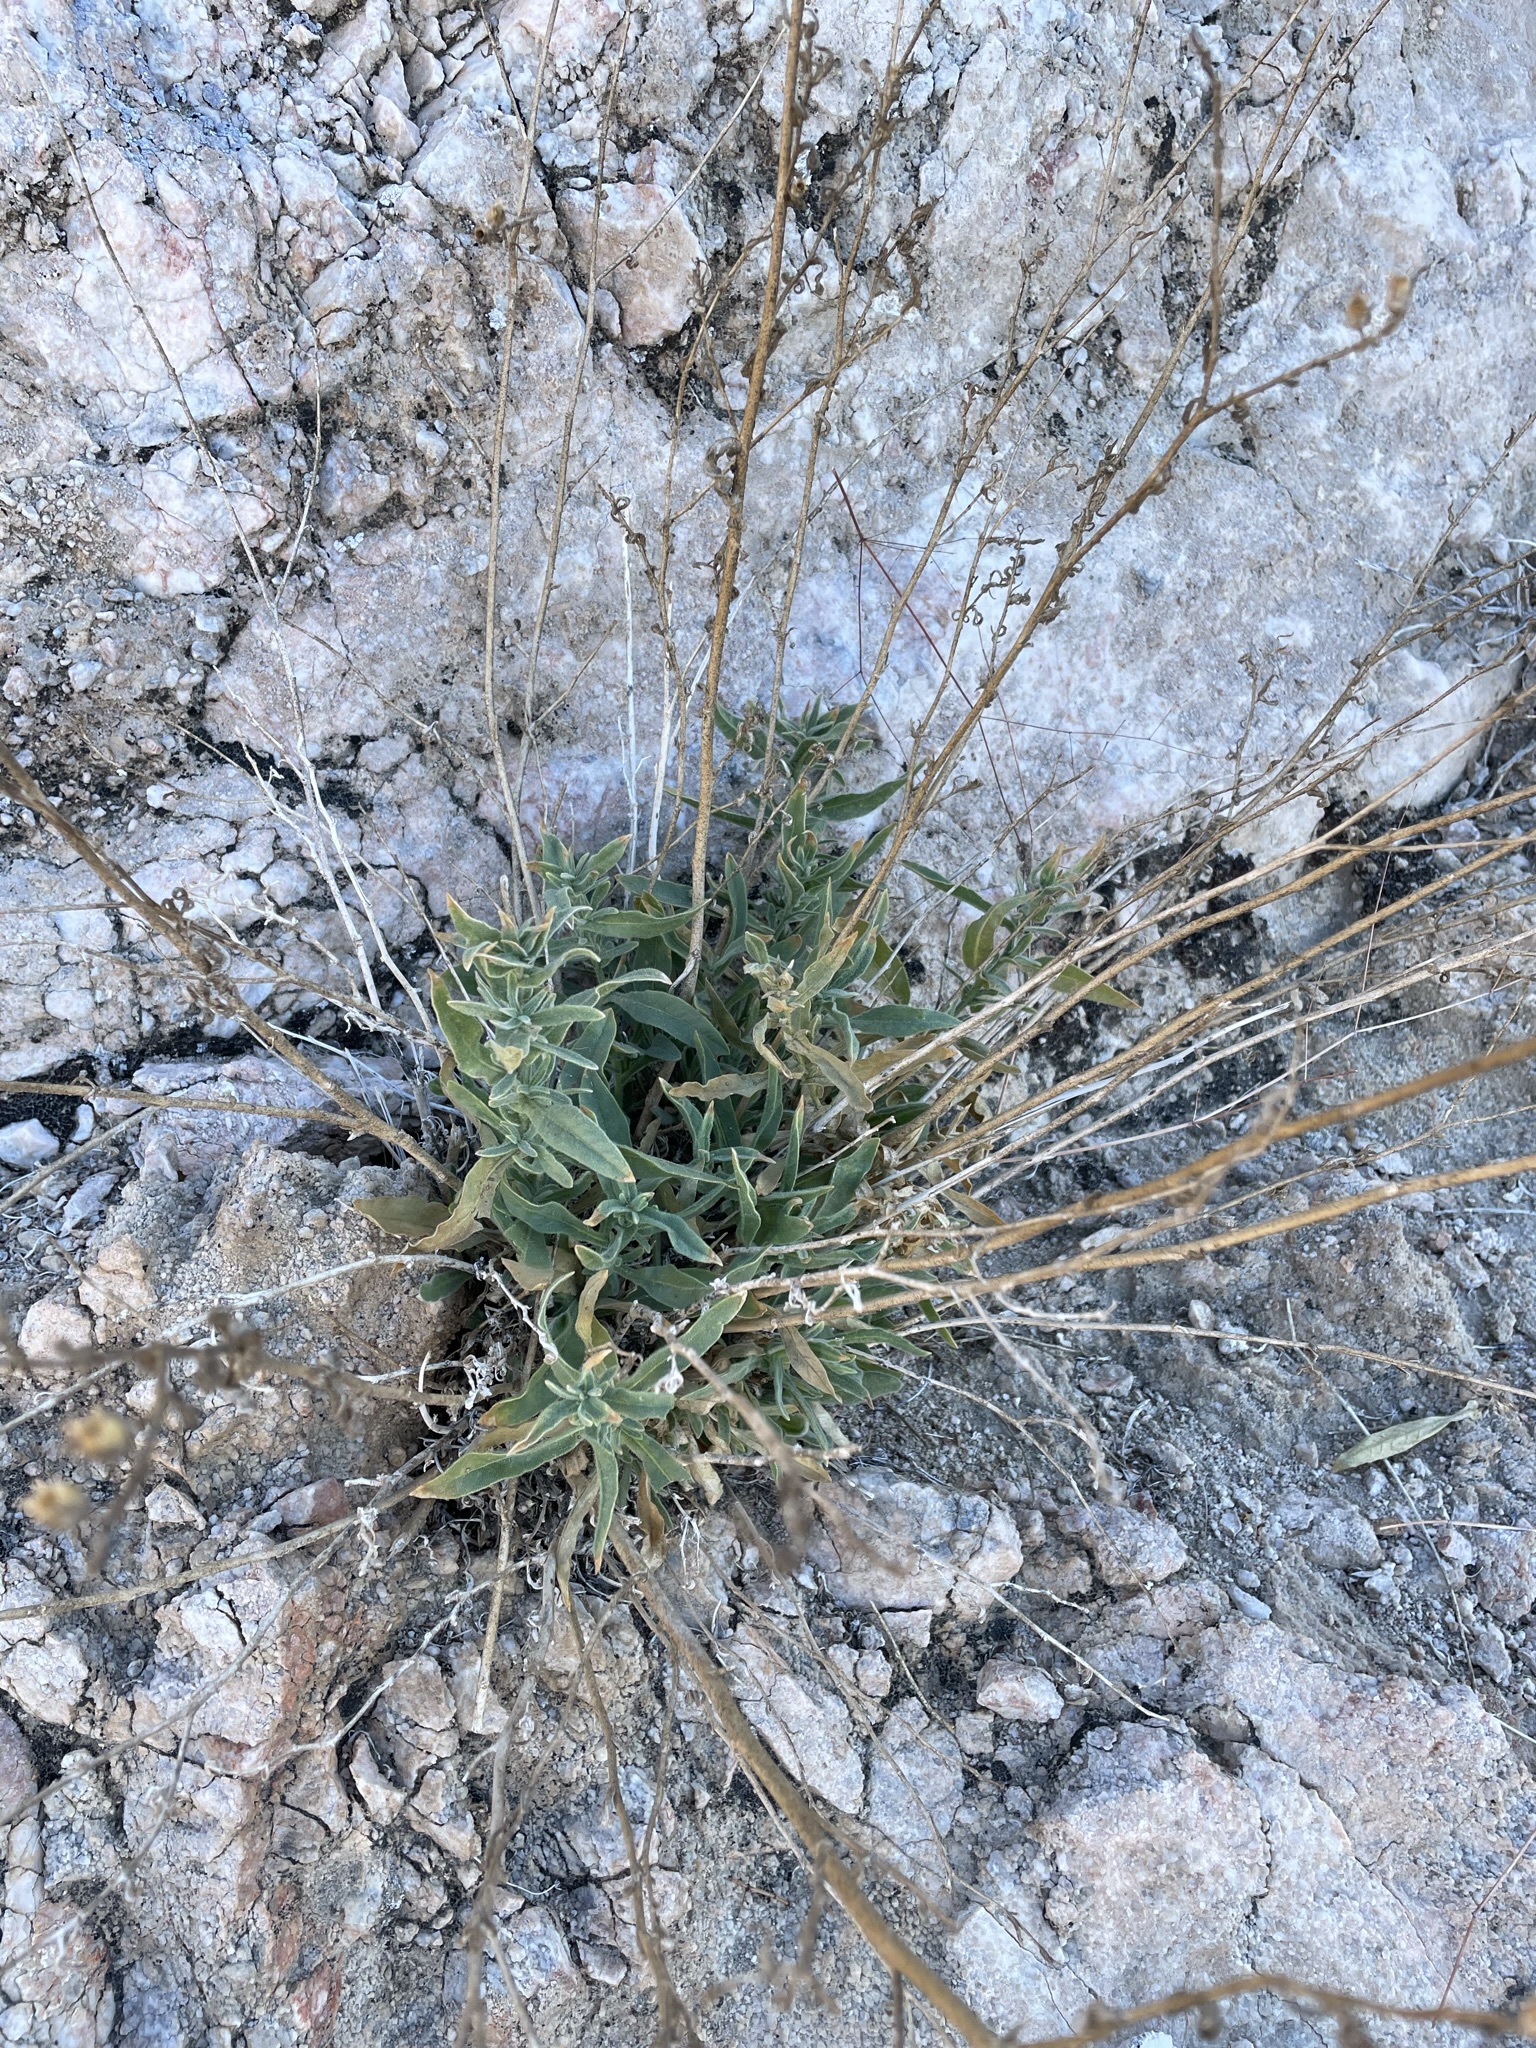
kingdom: Plantae
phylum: Tracheophyta
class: Magnoliopsida
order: Solanales
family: Solanaceae
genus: Nicotiana
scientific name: Nicotiana obtusifolia
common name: Desert tobacco
